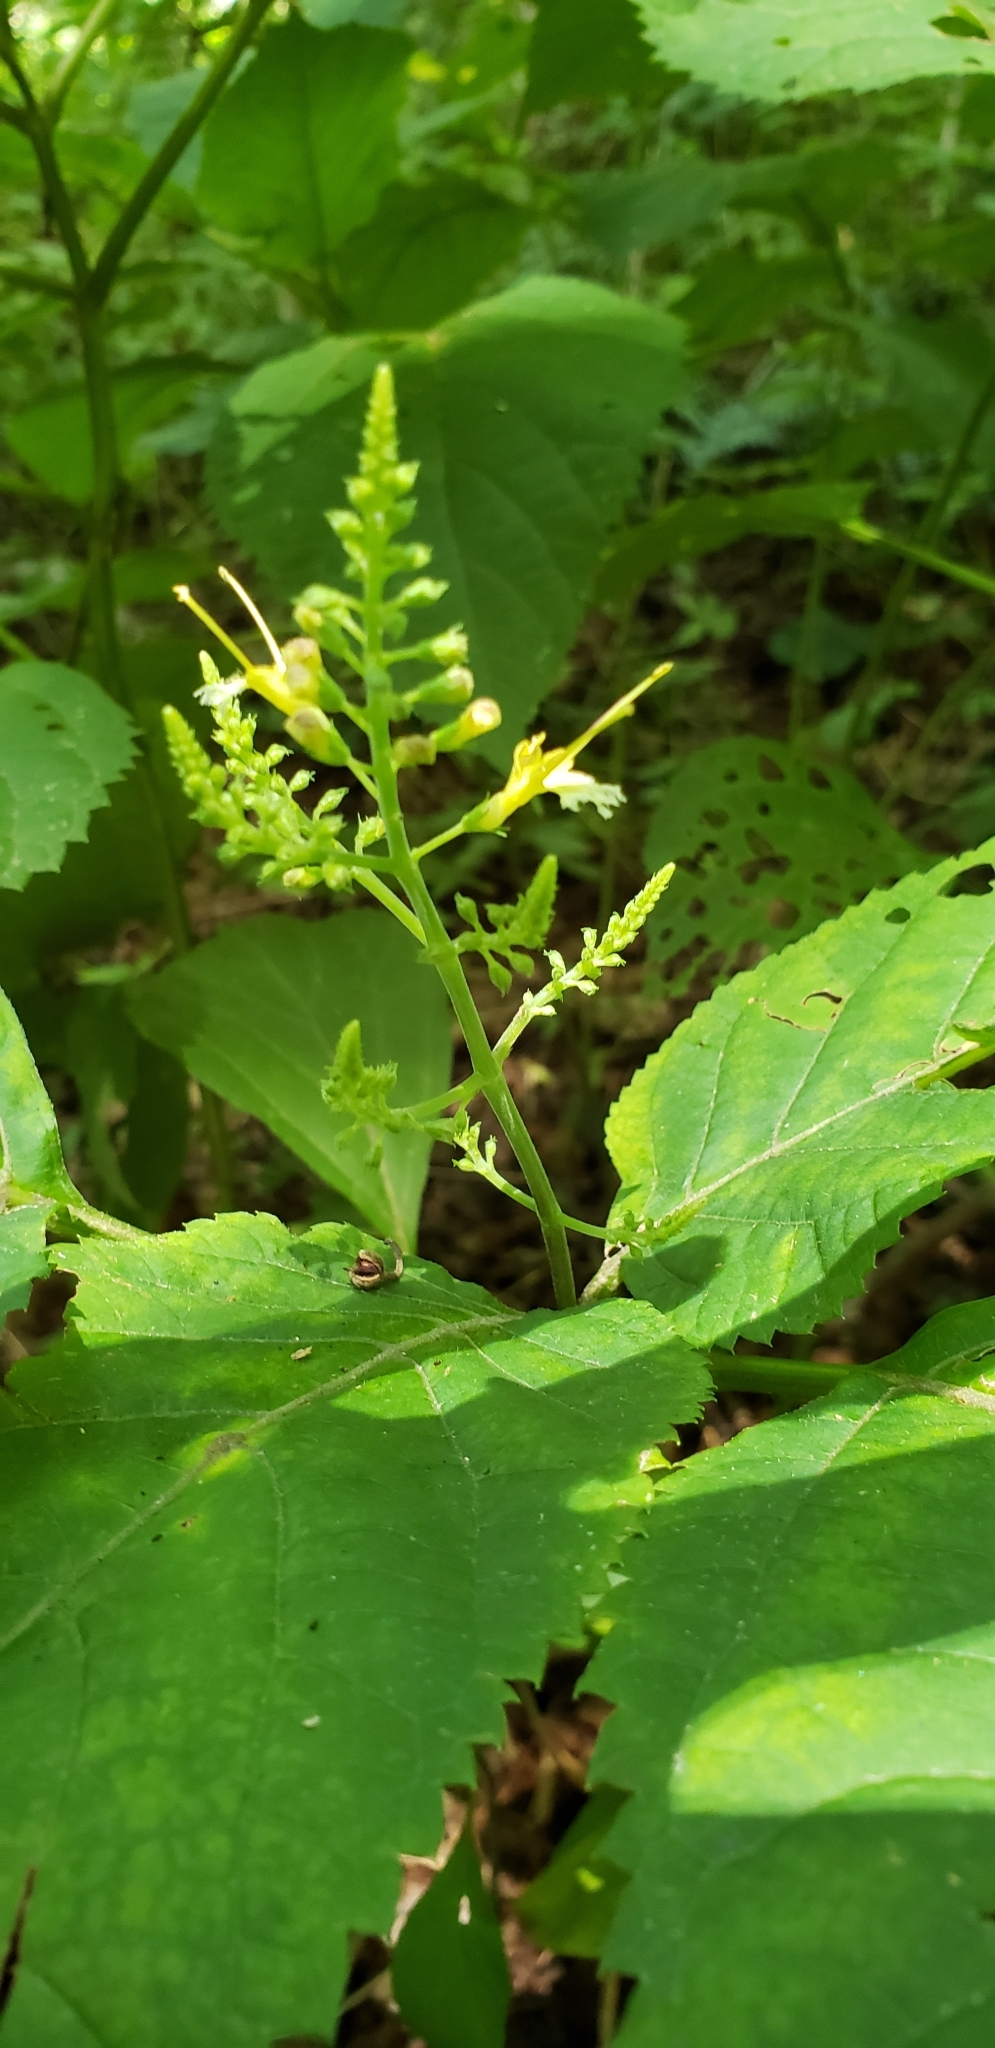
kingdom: Plantae
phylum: Tracheophyta
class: Magnoliopsida
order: Lamiales
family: Lamiaceae
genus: Collinsonia
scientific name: Collinsonia canadensis
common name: Northern horsebalm
